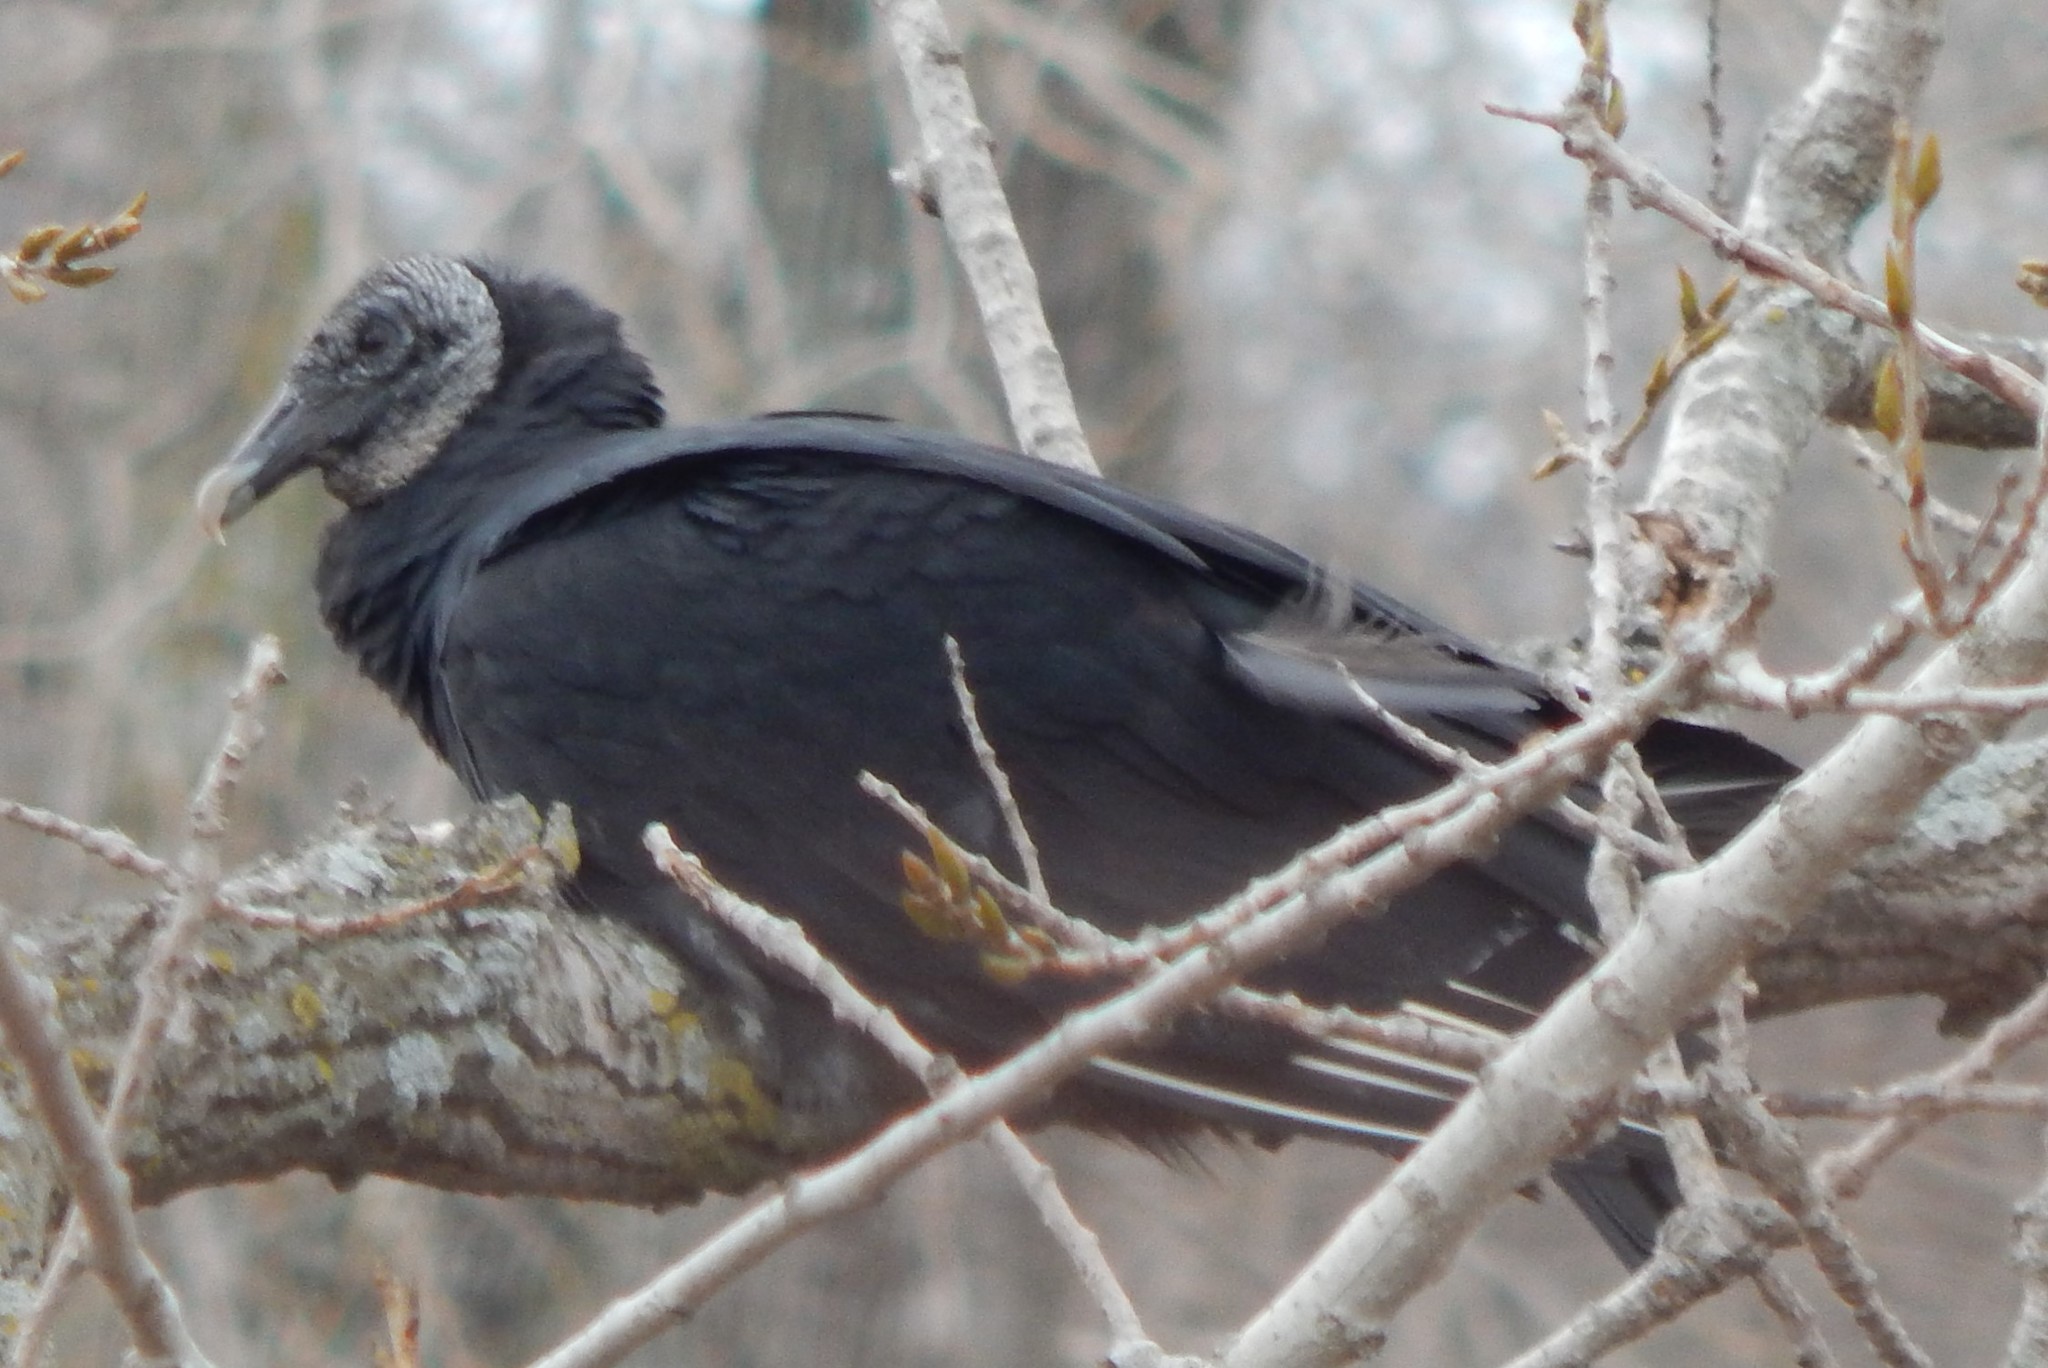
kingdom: Animalia
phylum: Chordata
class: Aves
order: Accipitriformes
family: Cathartidae
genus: Coragyps
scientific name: Coragyps atratus
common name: Black vulture
